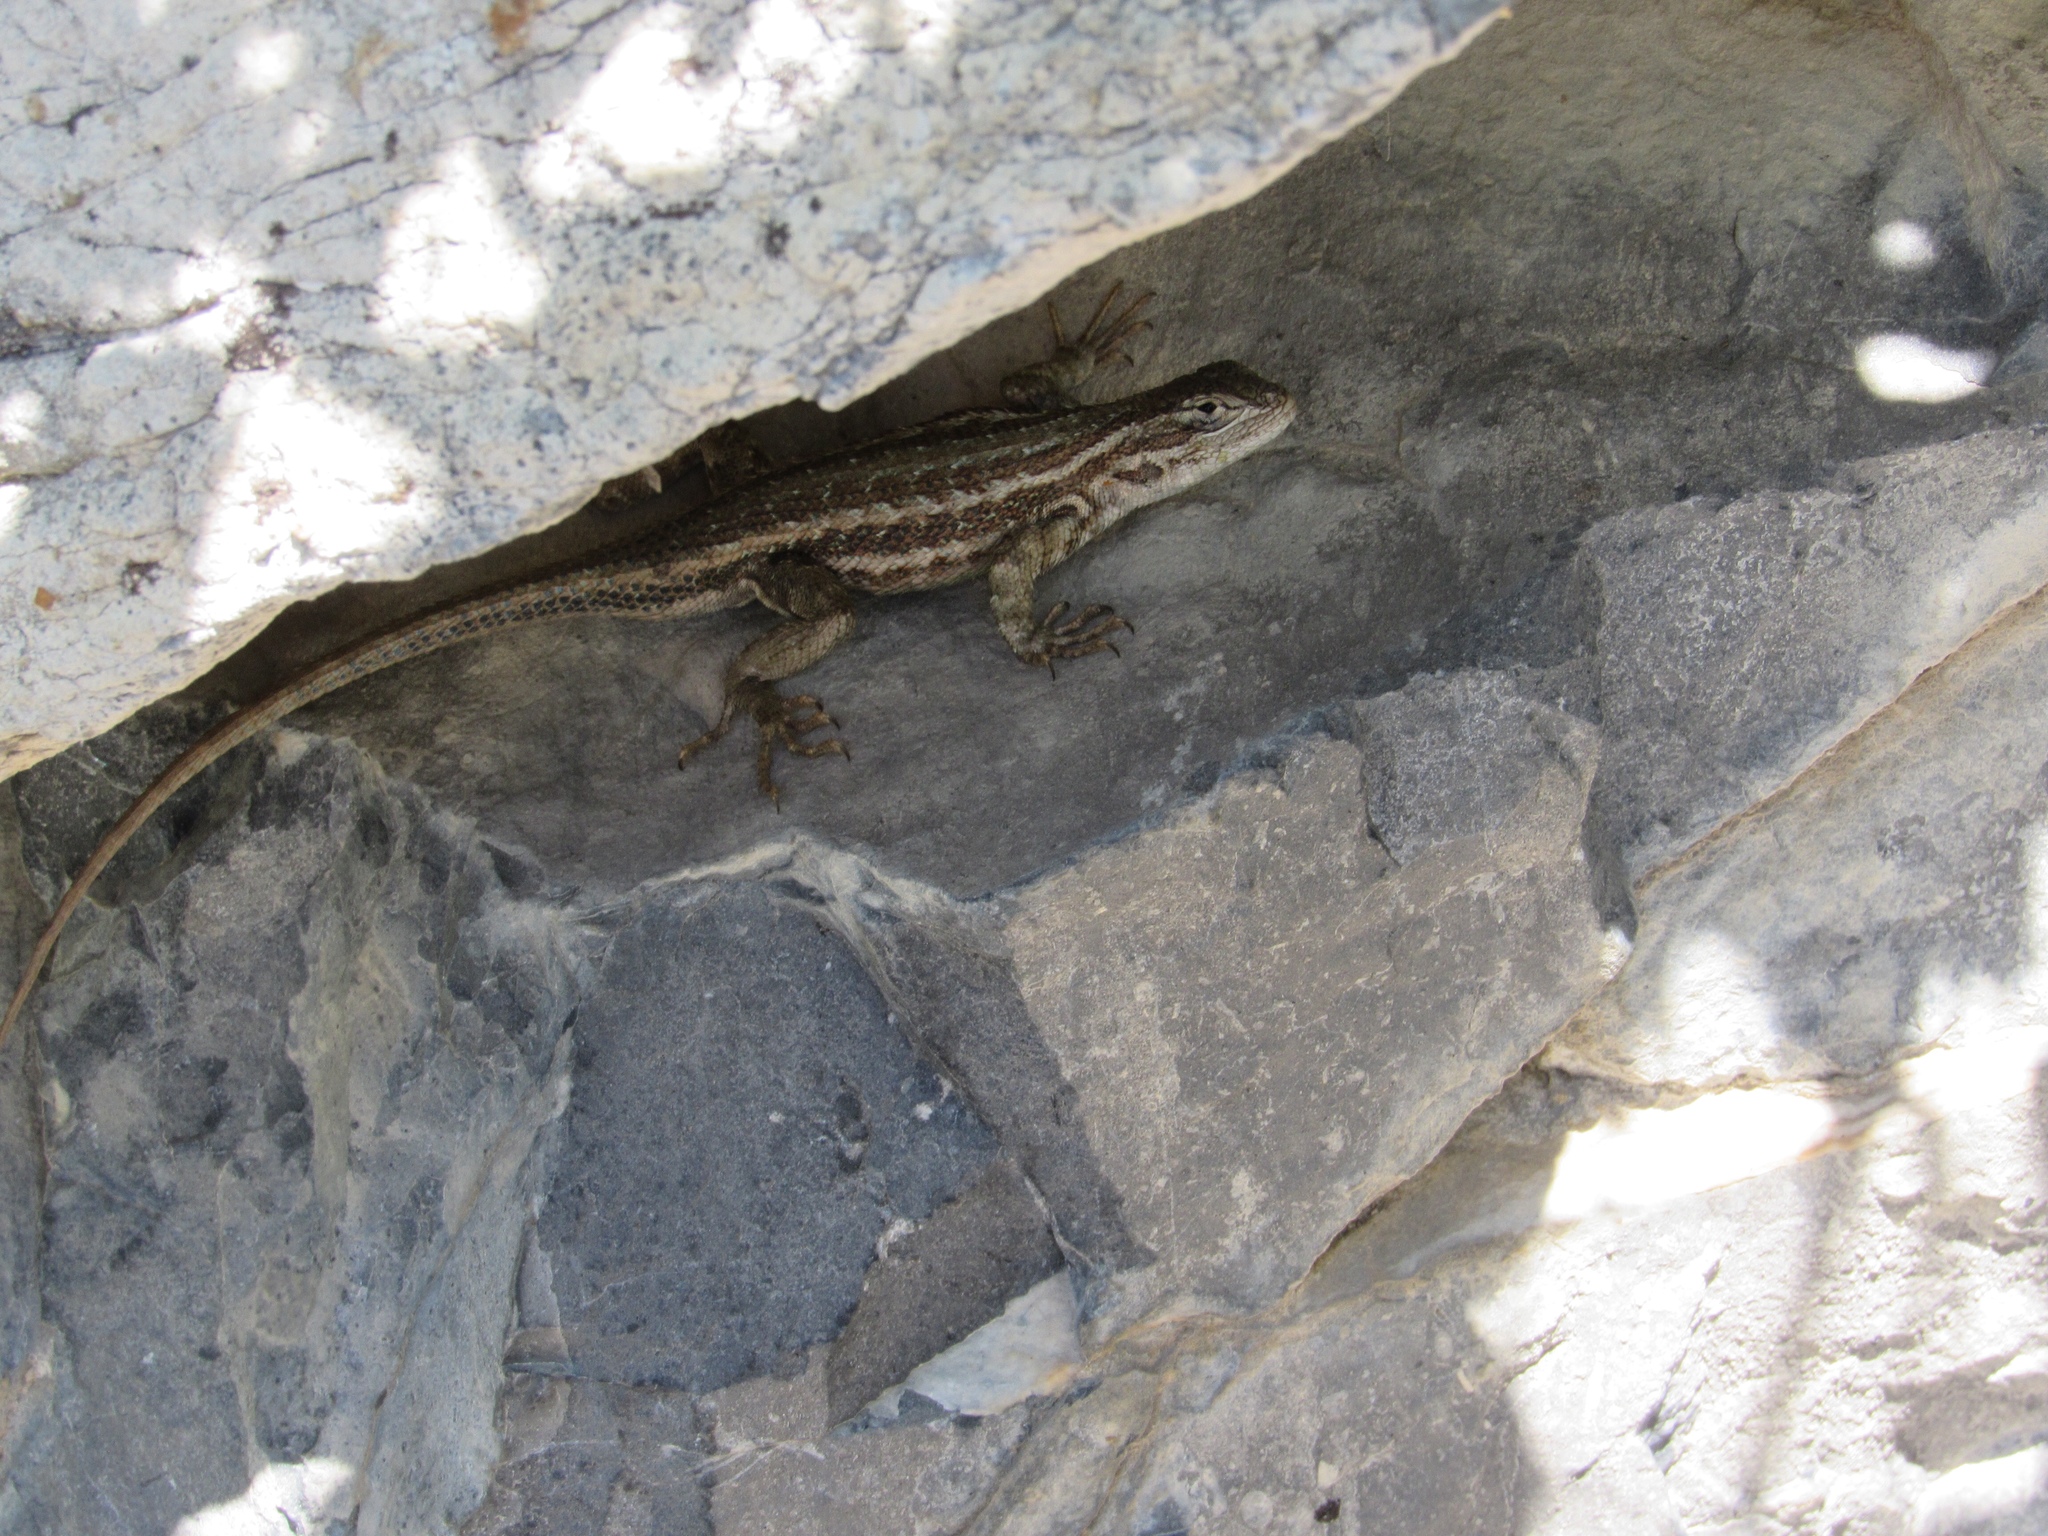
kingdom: Animalia
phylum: Chordata
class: Squamata
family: Phrynosomatidae
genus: Sceloporus
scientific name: Sceloporus graciosus
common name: Sagebrush lizard
